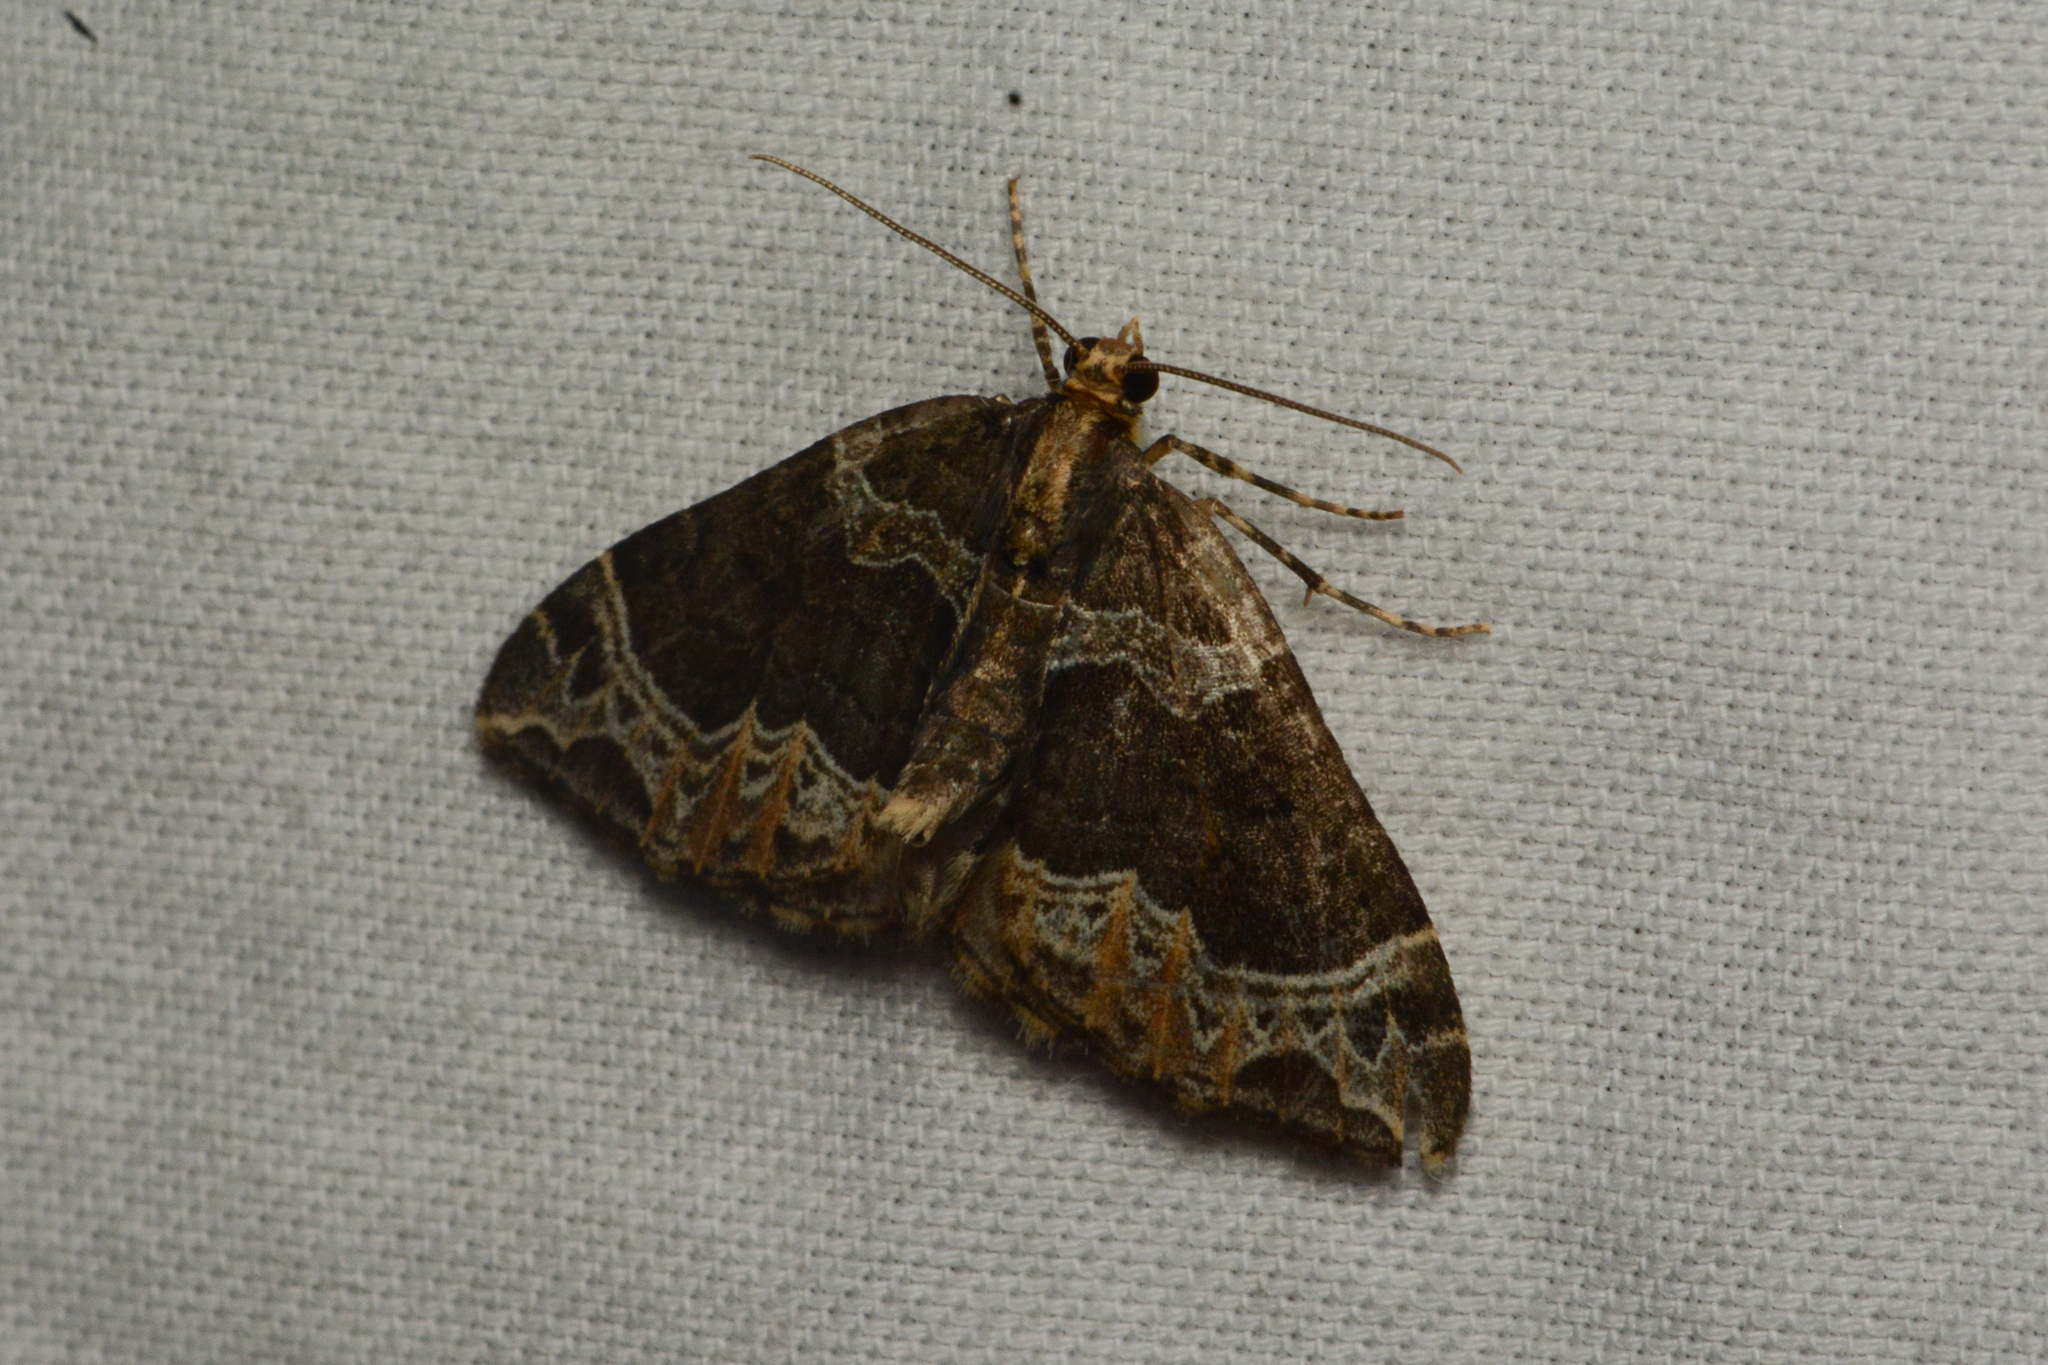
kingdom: Animalia
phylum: Arthropoda
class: Insecta
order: Lepidoptera
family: Geometridae
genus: Ecliptopera
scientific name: Ecliptopera silaceata
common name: Small phoenix
